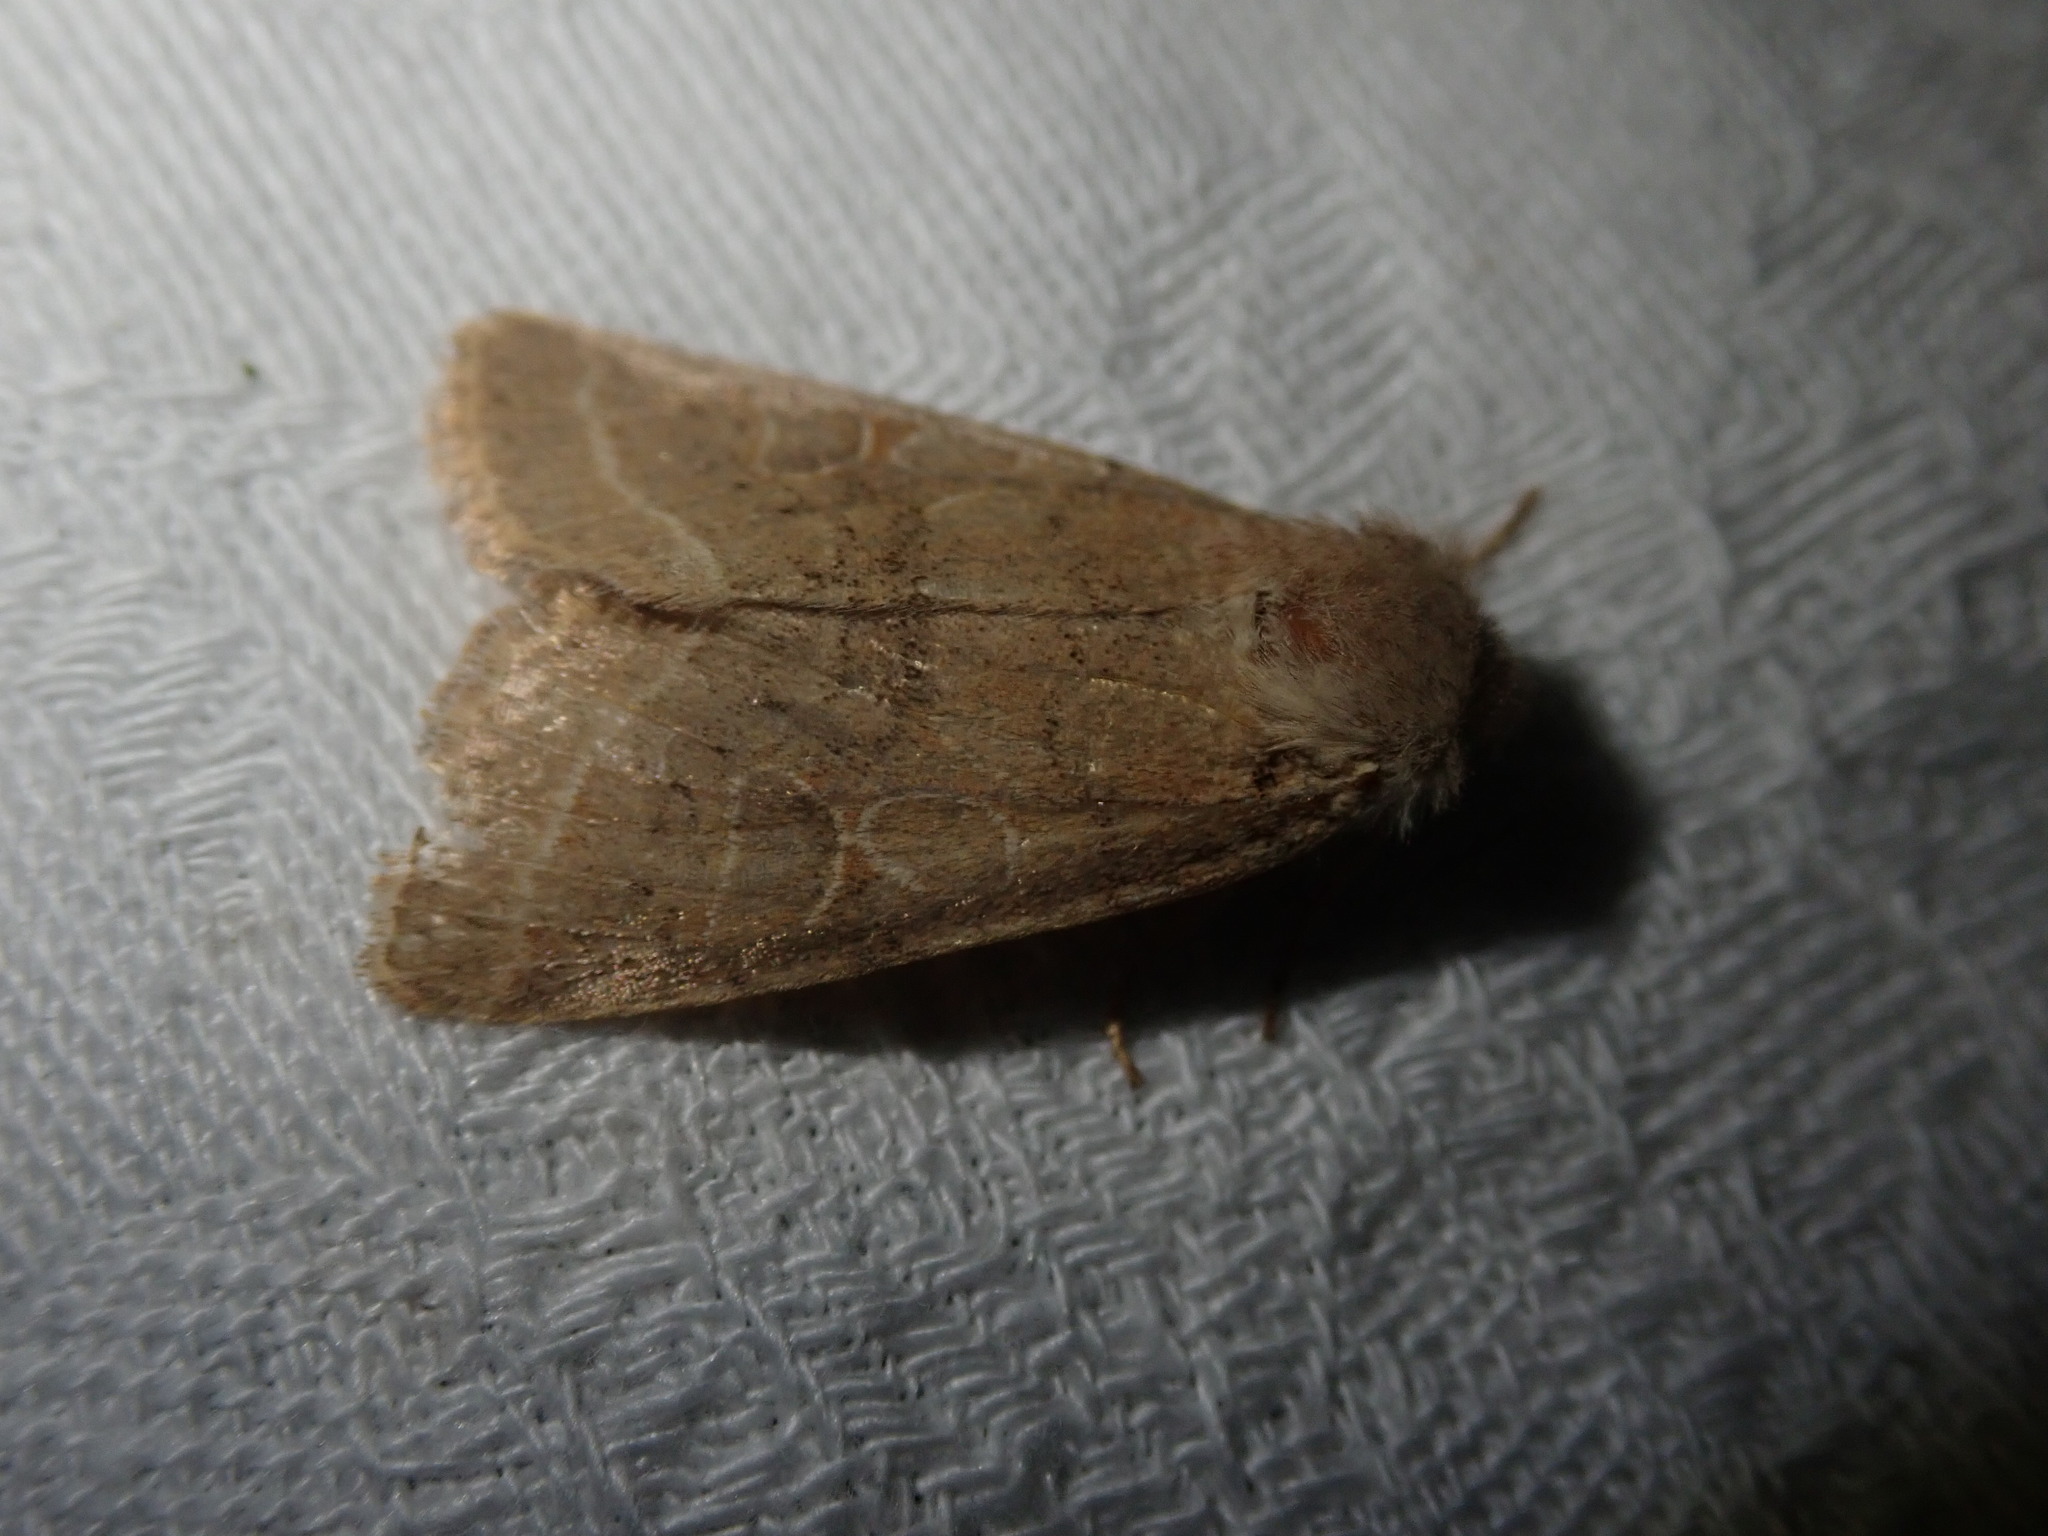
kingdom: Animalia
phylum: Arthropoda
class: Insecta
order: Lepidoptera
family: Noctuidae
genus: Orthosia
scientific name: Orthosia cerasi
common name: Common quaker
